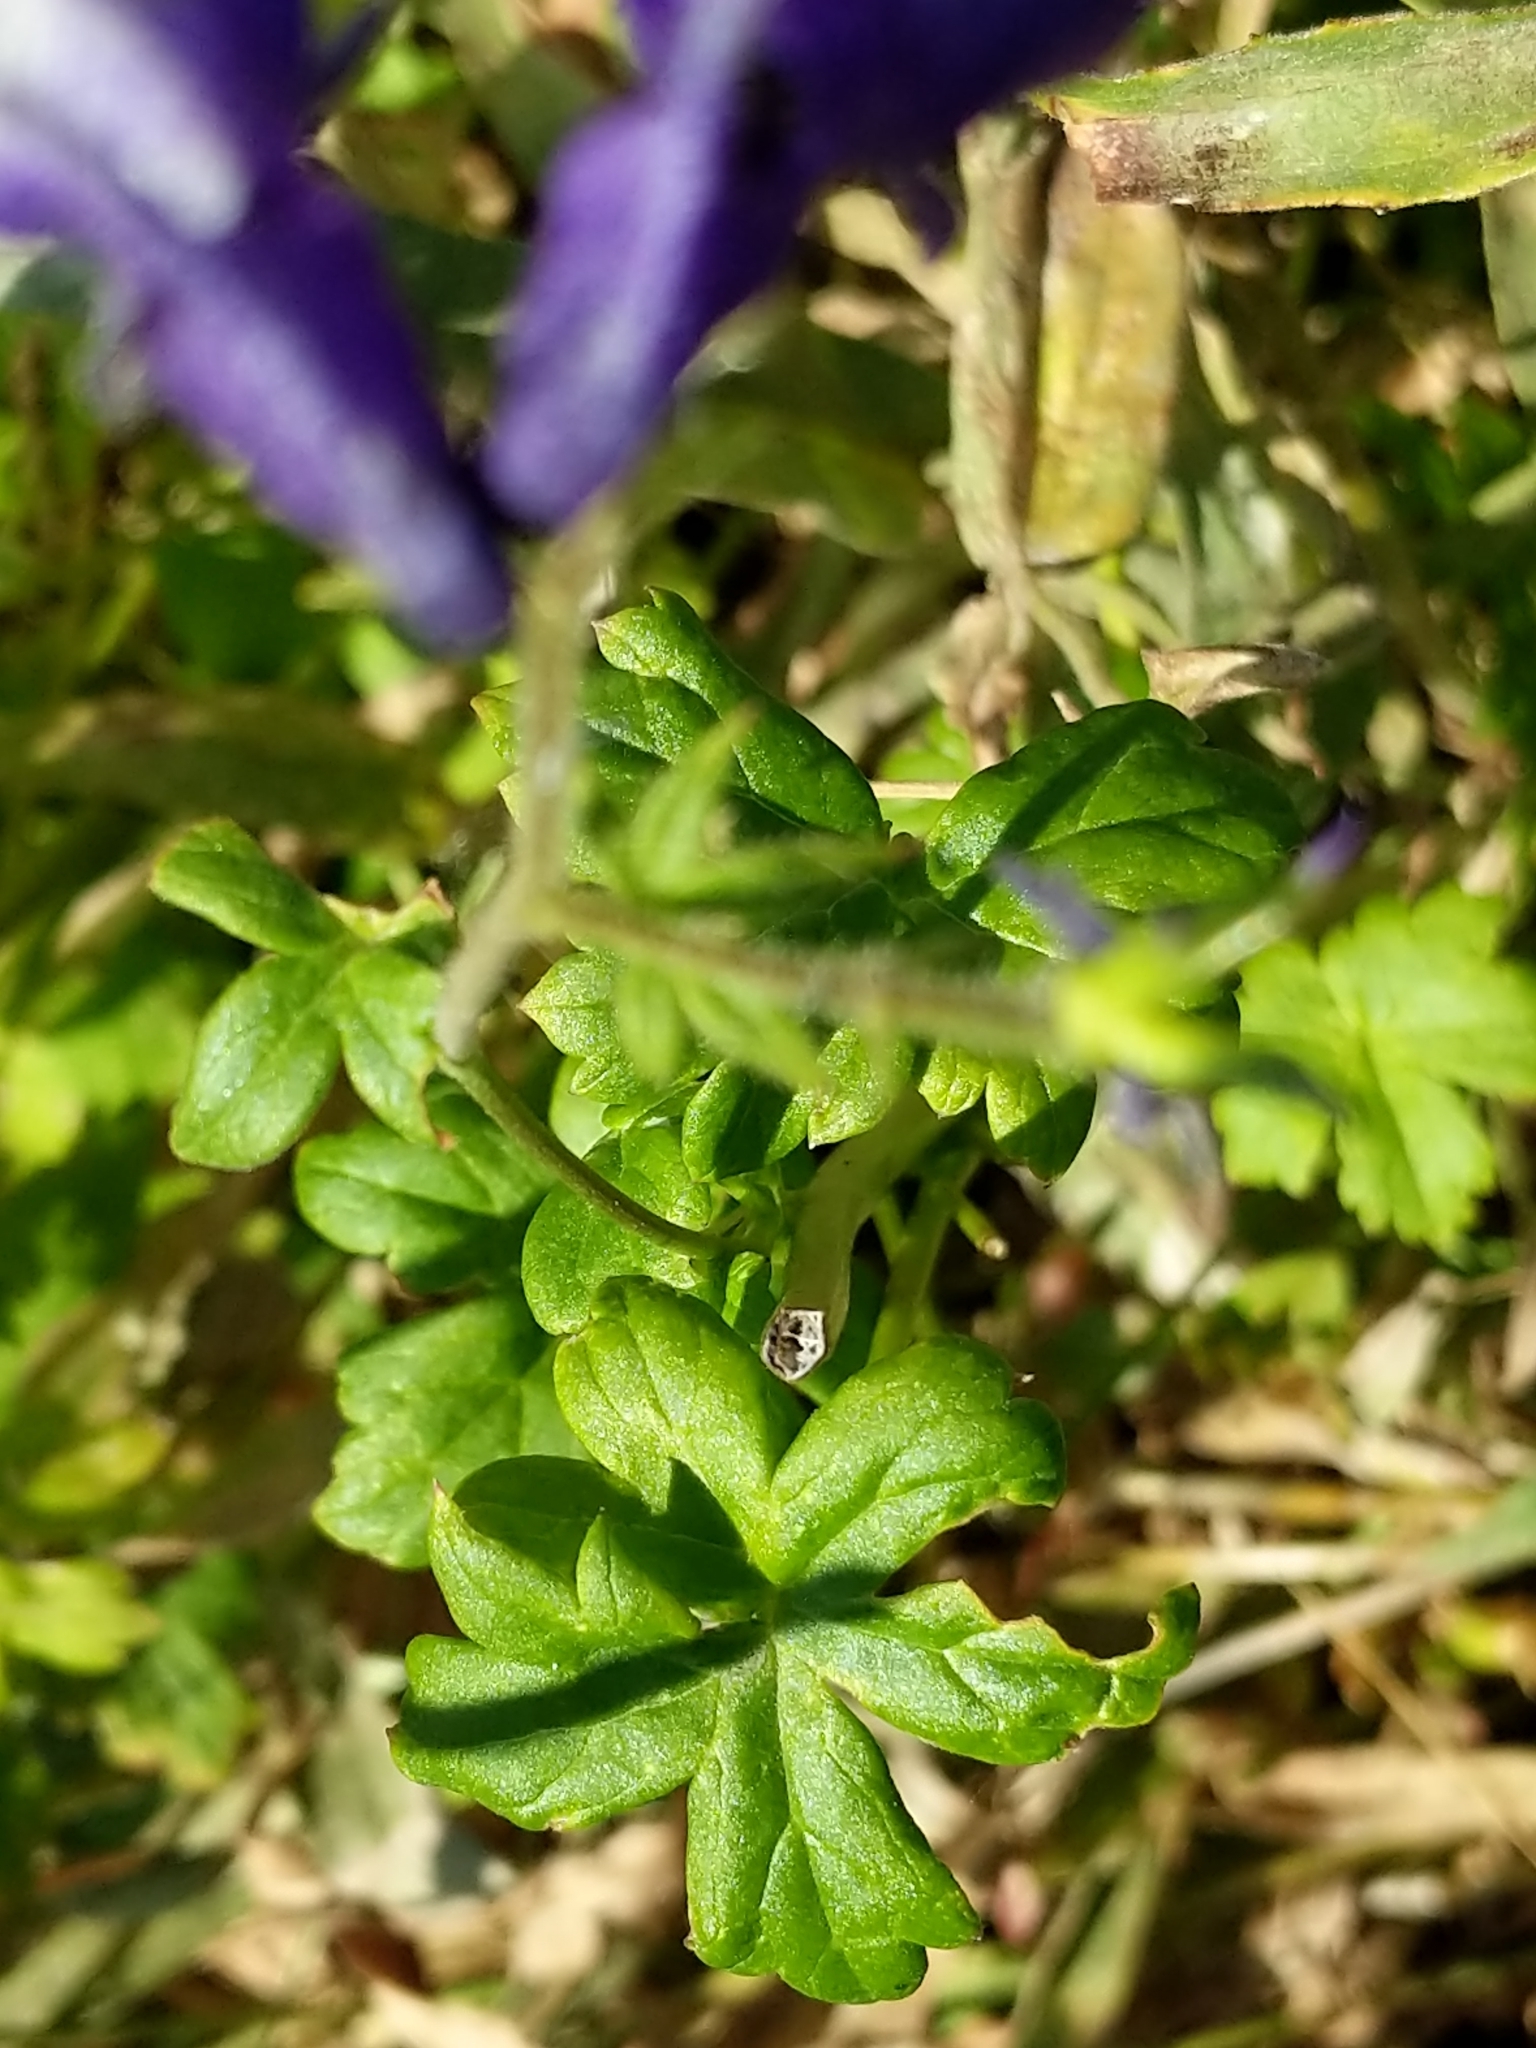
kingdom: Plantae
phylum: Tracheophyta
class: Magnoliopsida
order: Ranunculales
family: Ranunculaceae
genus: Aconitum
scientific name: Aconitum columbianum
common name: Columbia aconite
